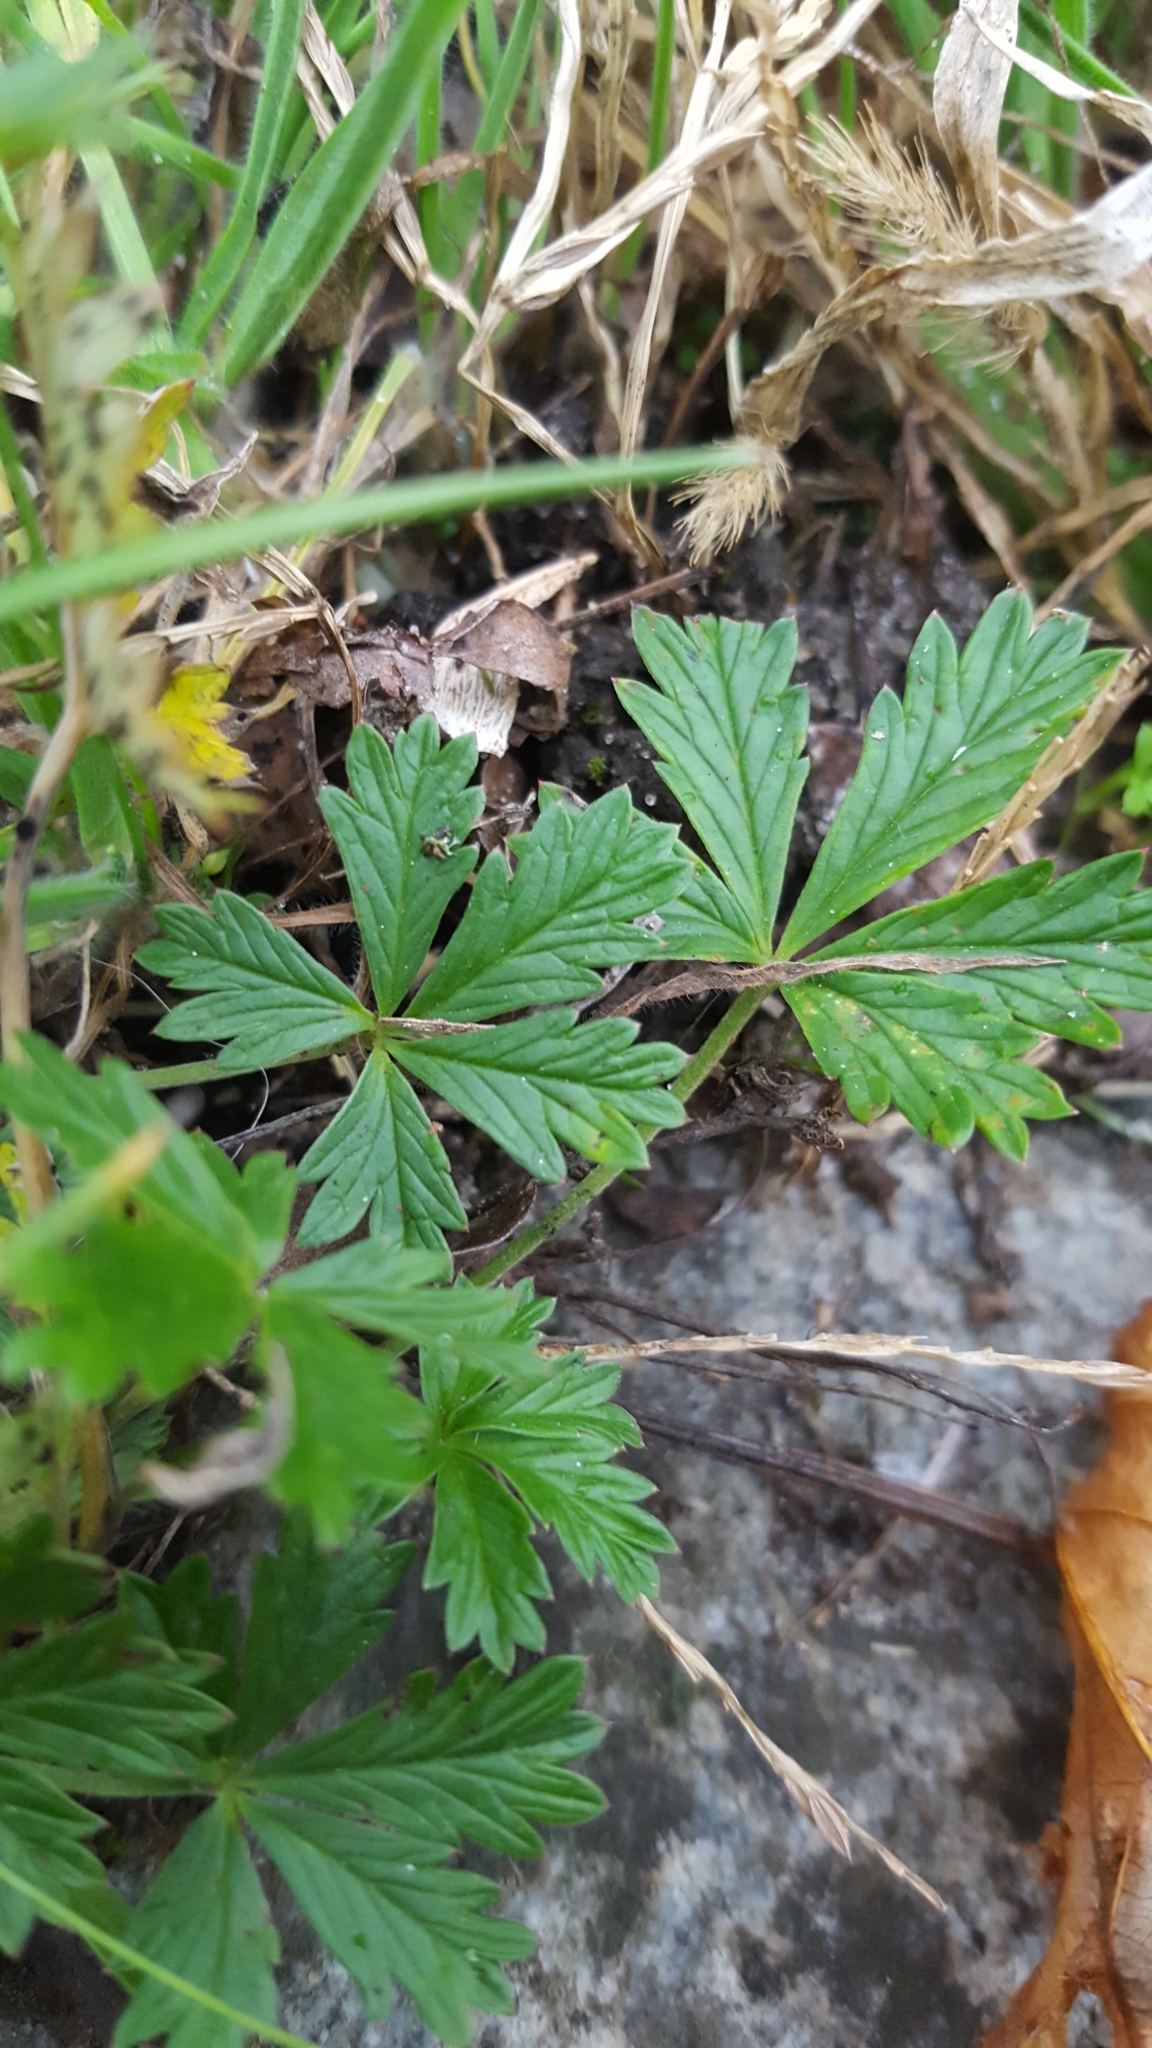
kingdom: Plantae
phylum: Tracheophyta
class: Magnoliopsida
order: Rosales
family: Rosaceae
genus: Potentilla
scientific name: Potentilla argentea
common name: Hoary cinquefoil
